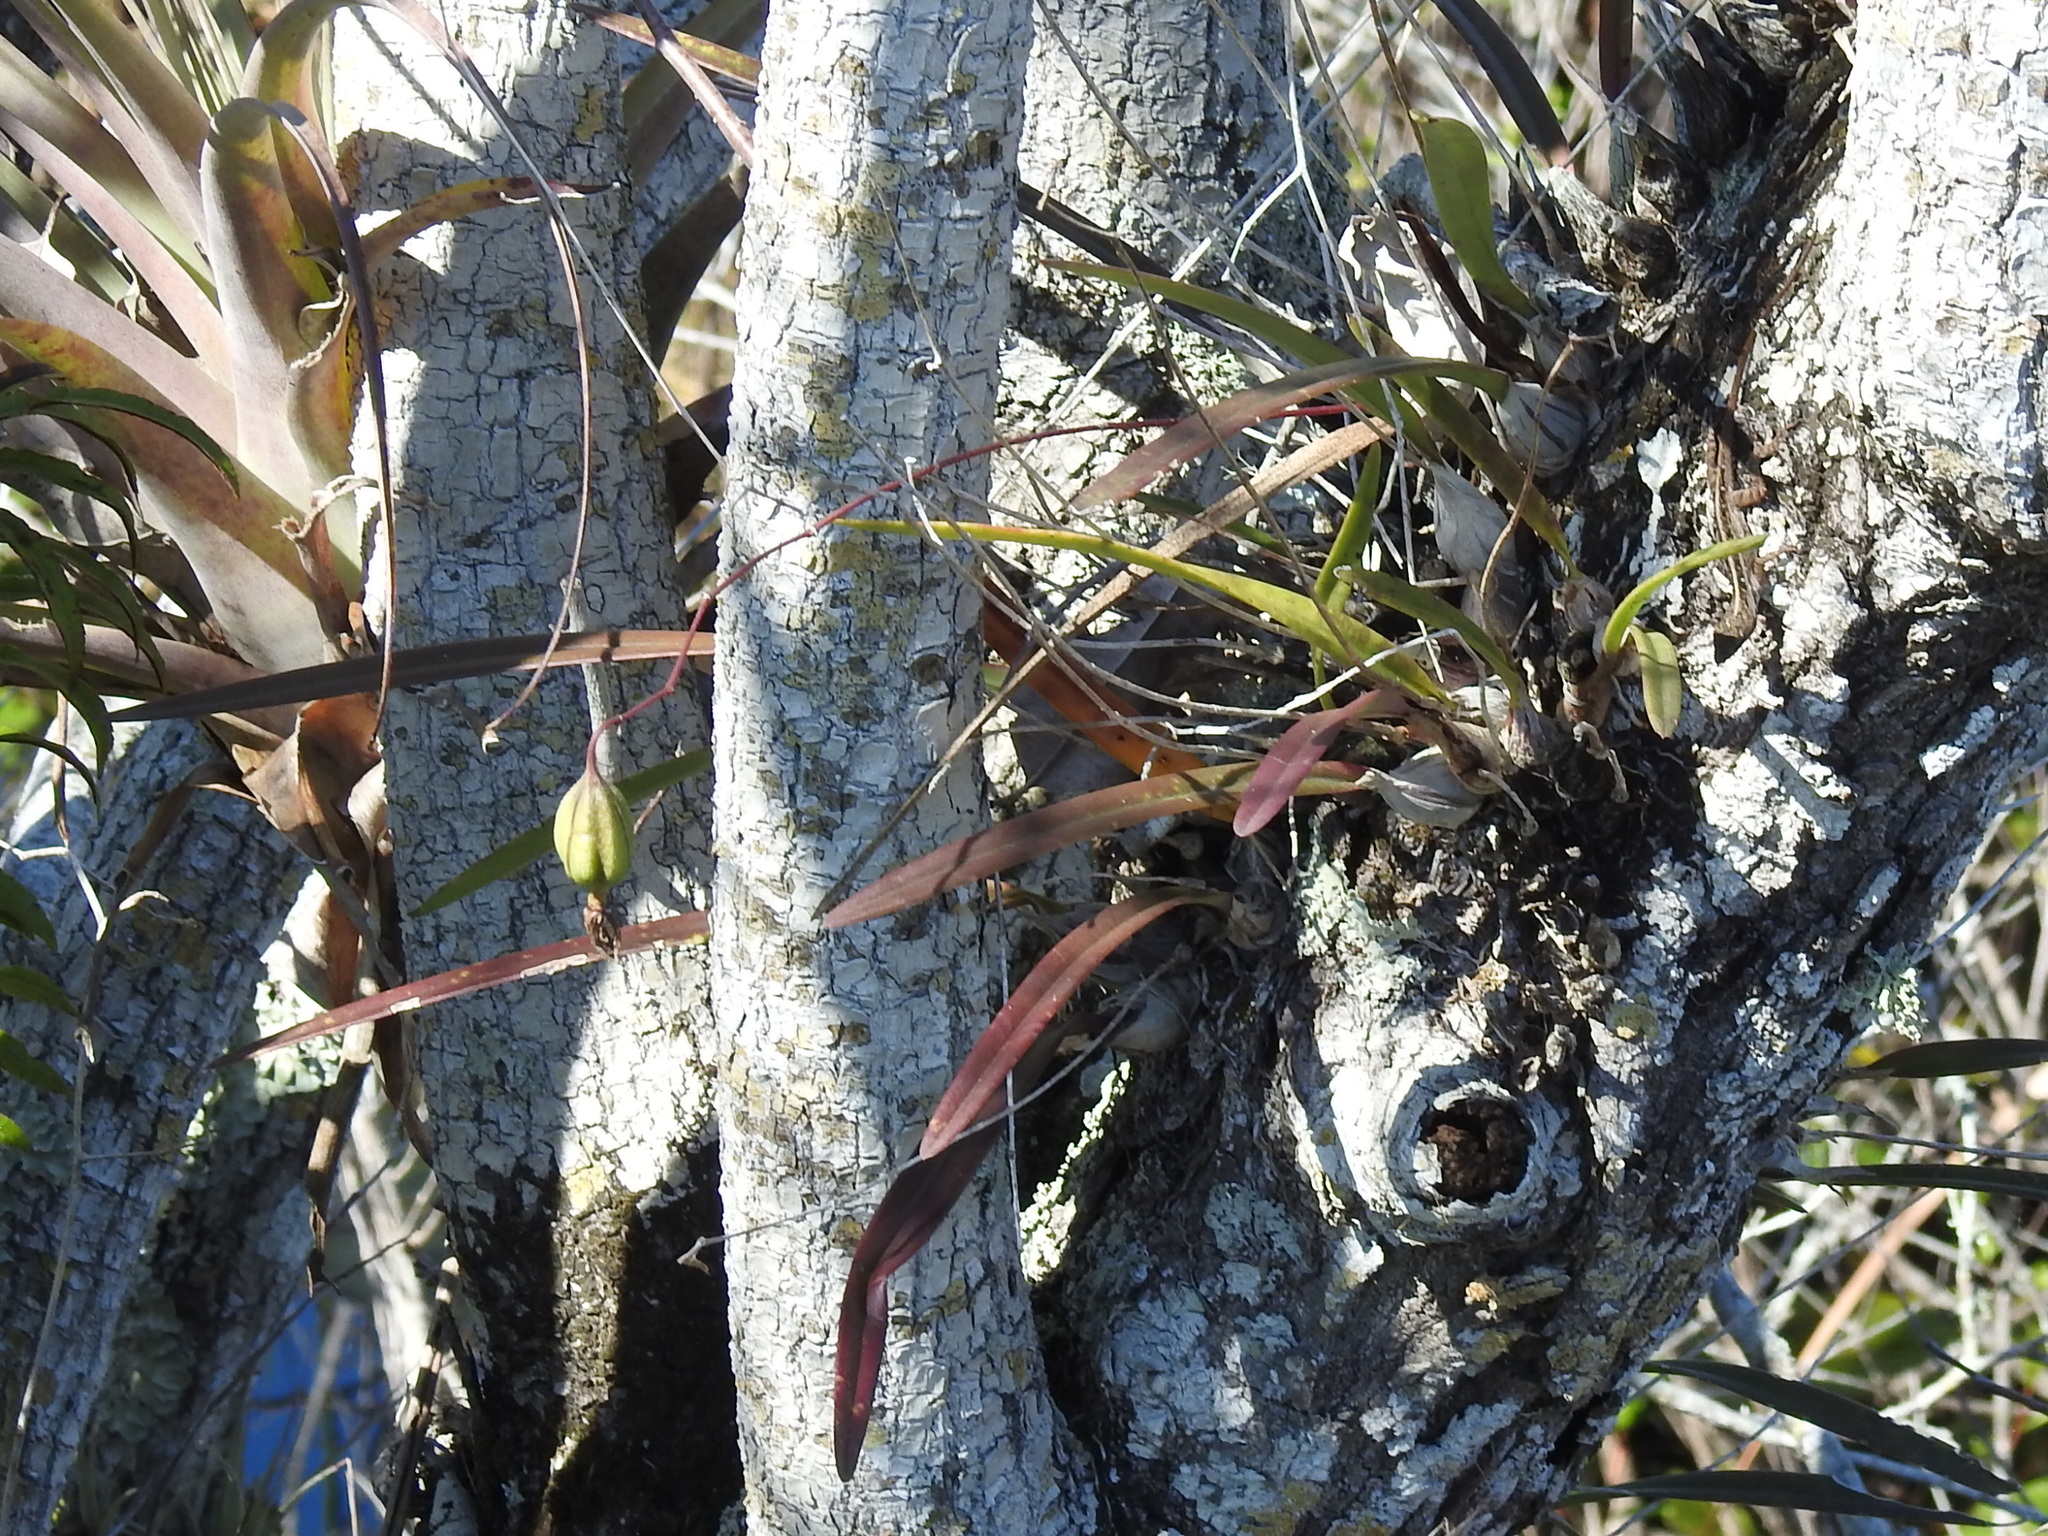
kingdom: Plantae
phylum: Tracheophyta
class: Liliopsida
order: Asparagales
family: Orchidaceae
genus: Encyclia
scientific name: Encyclia tampensis
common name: Florida butterfly orchid
